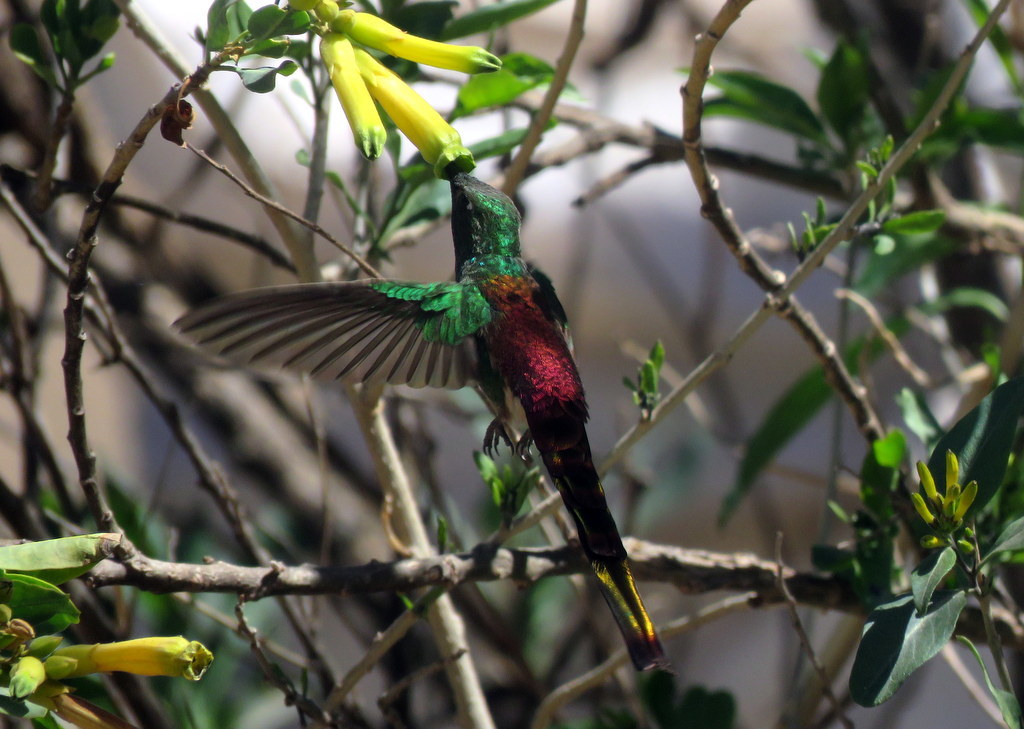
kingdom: Animalia
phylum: Chordata
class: Aves
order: Apodiformes
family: Trochilidae
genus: Sappho
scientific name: Sappho sparganurus
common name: Red-tailed comet
